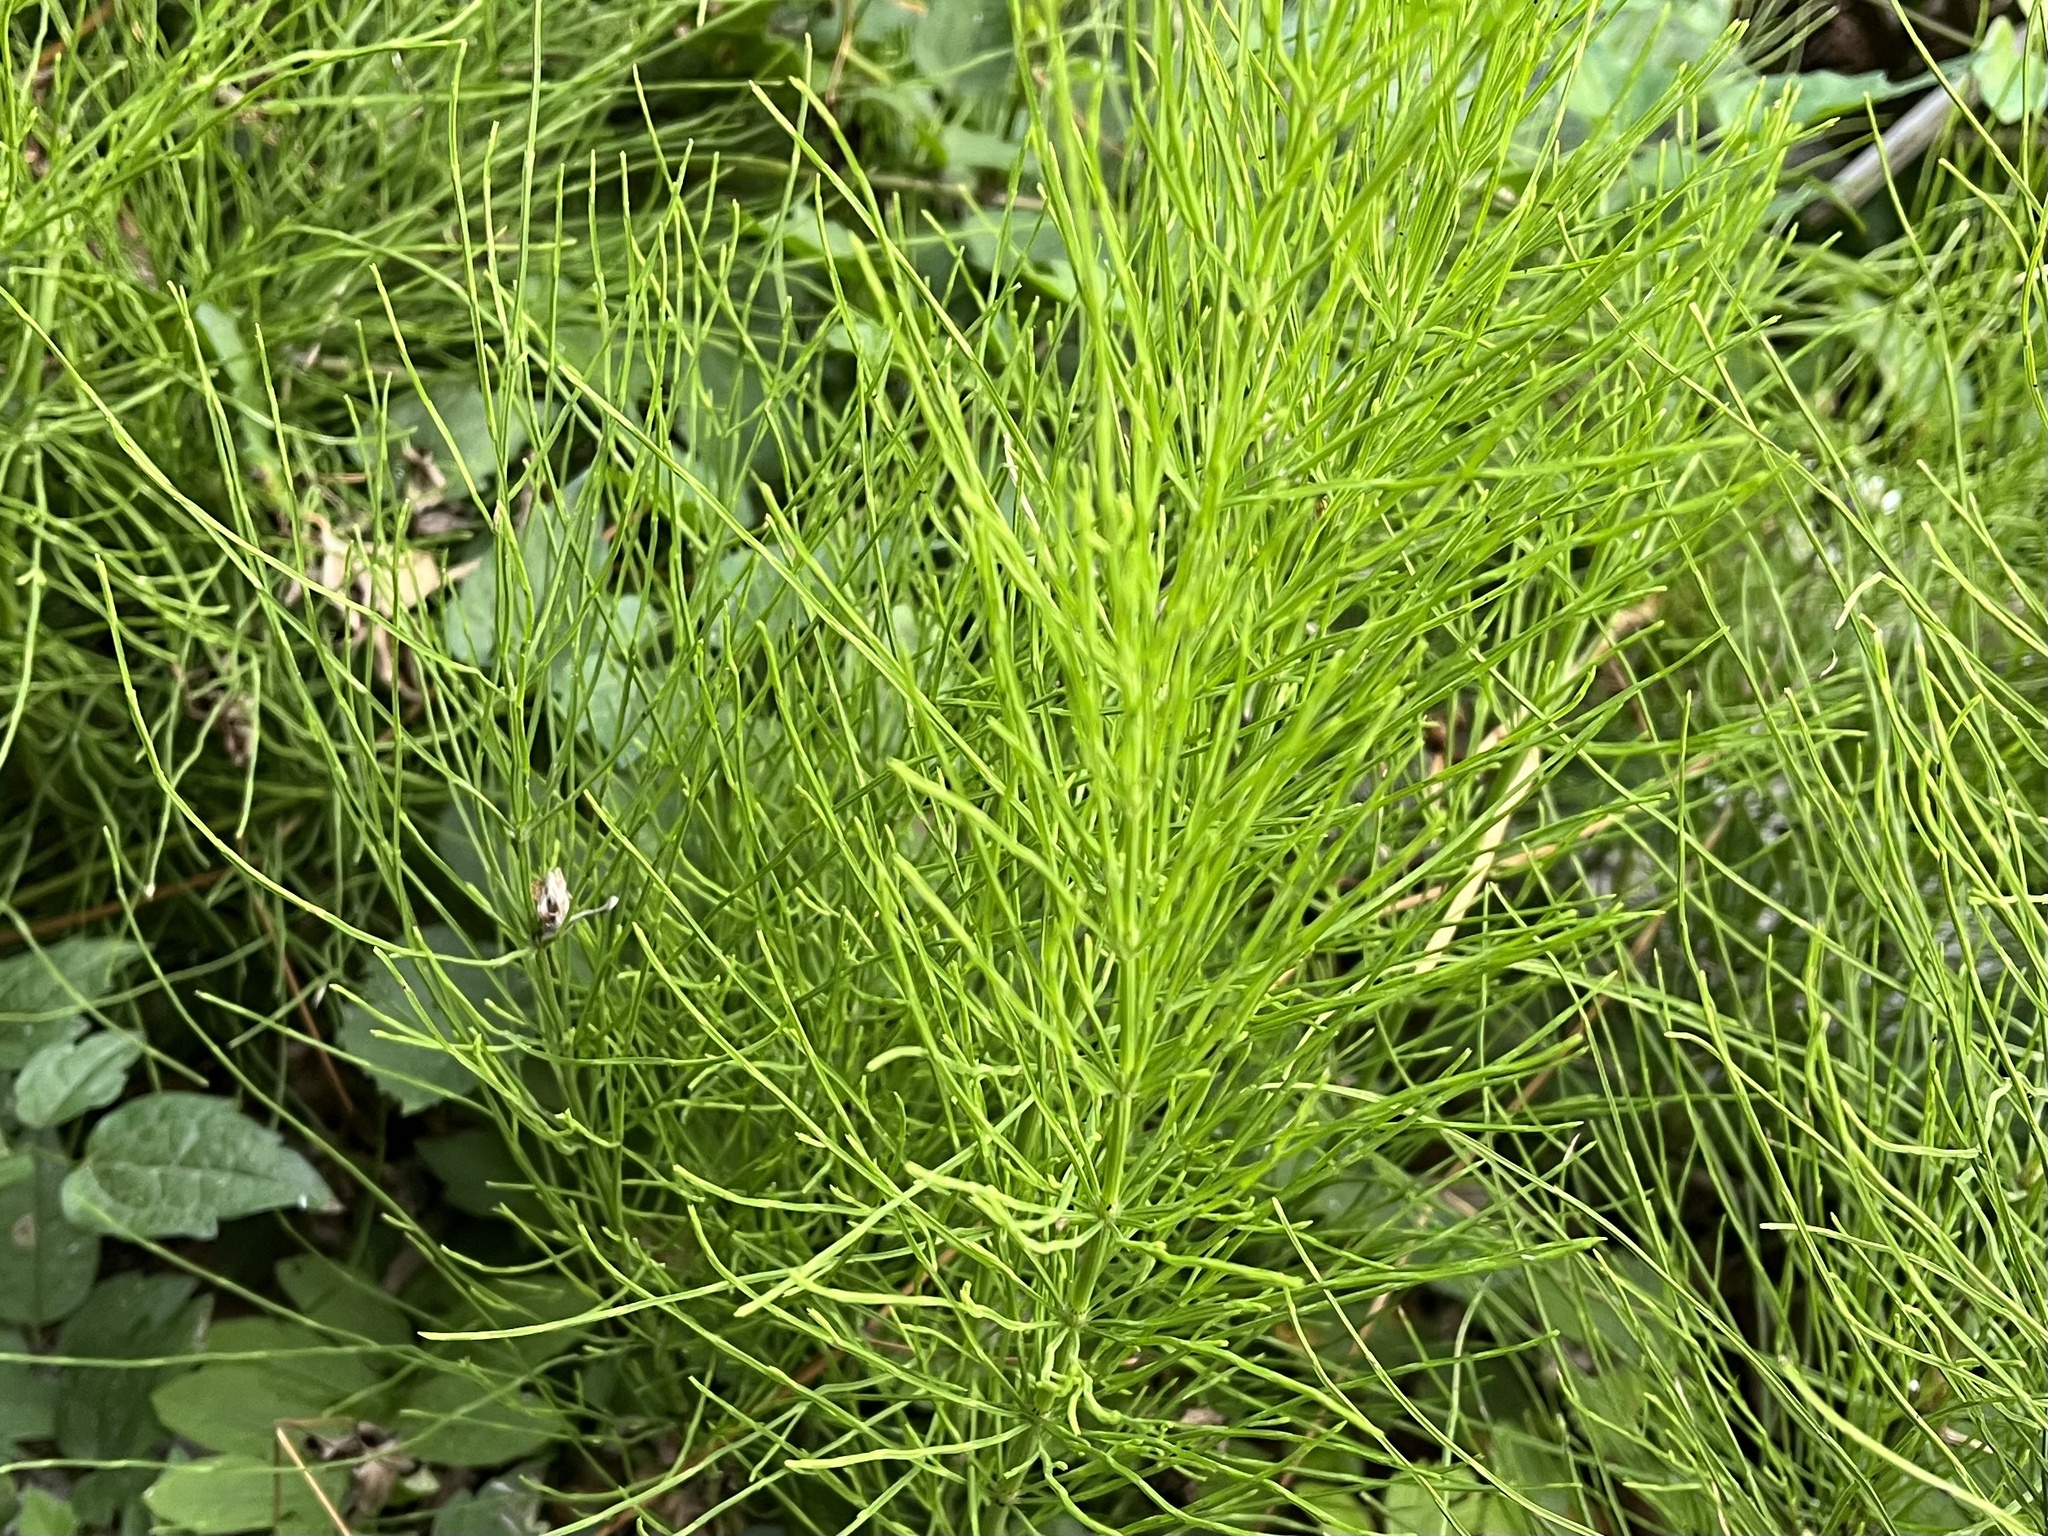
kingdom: Plantae
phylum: Tracheophyta
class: Polypodiopsida
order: Equisetales
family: Equisetaceae
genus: Equisetum
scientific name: Equisetum arvense
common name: Field horsetail
